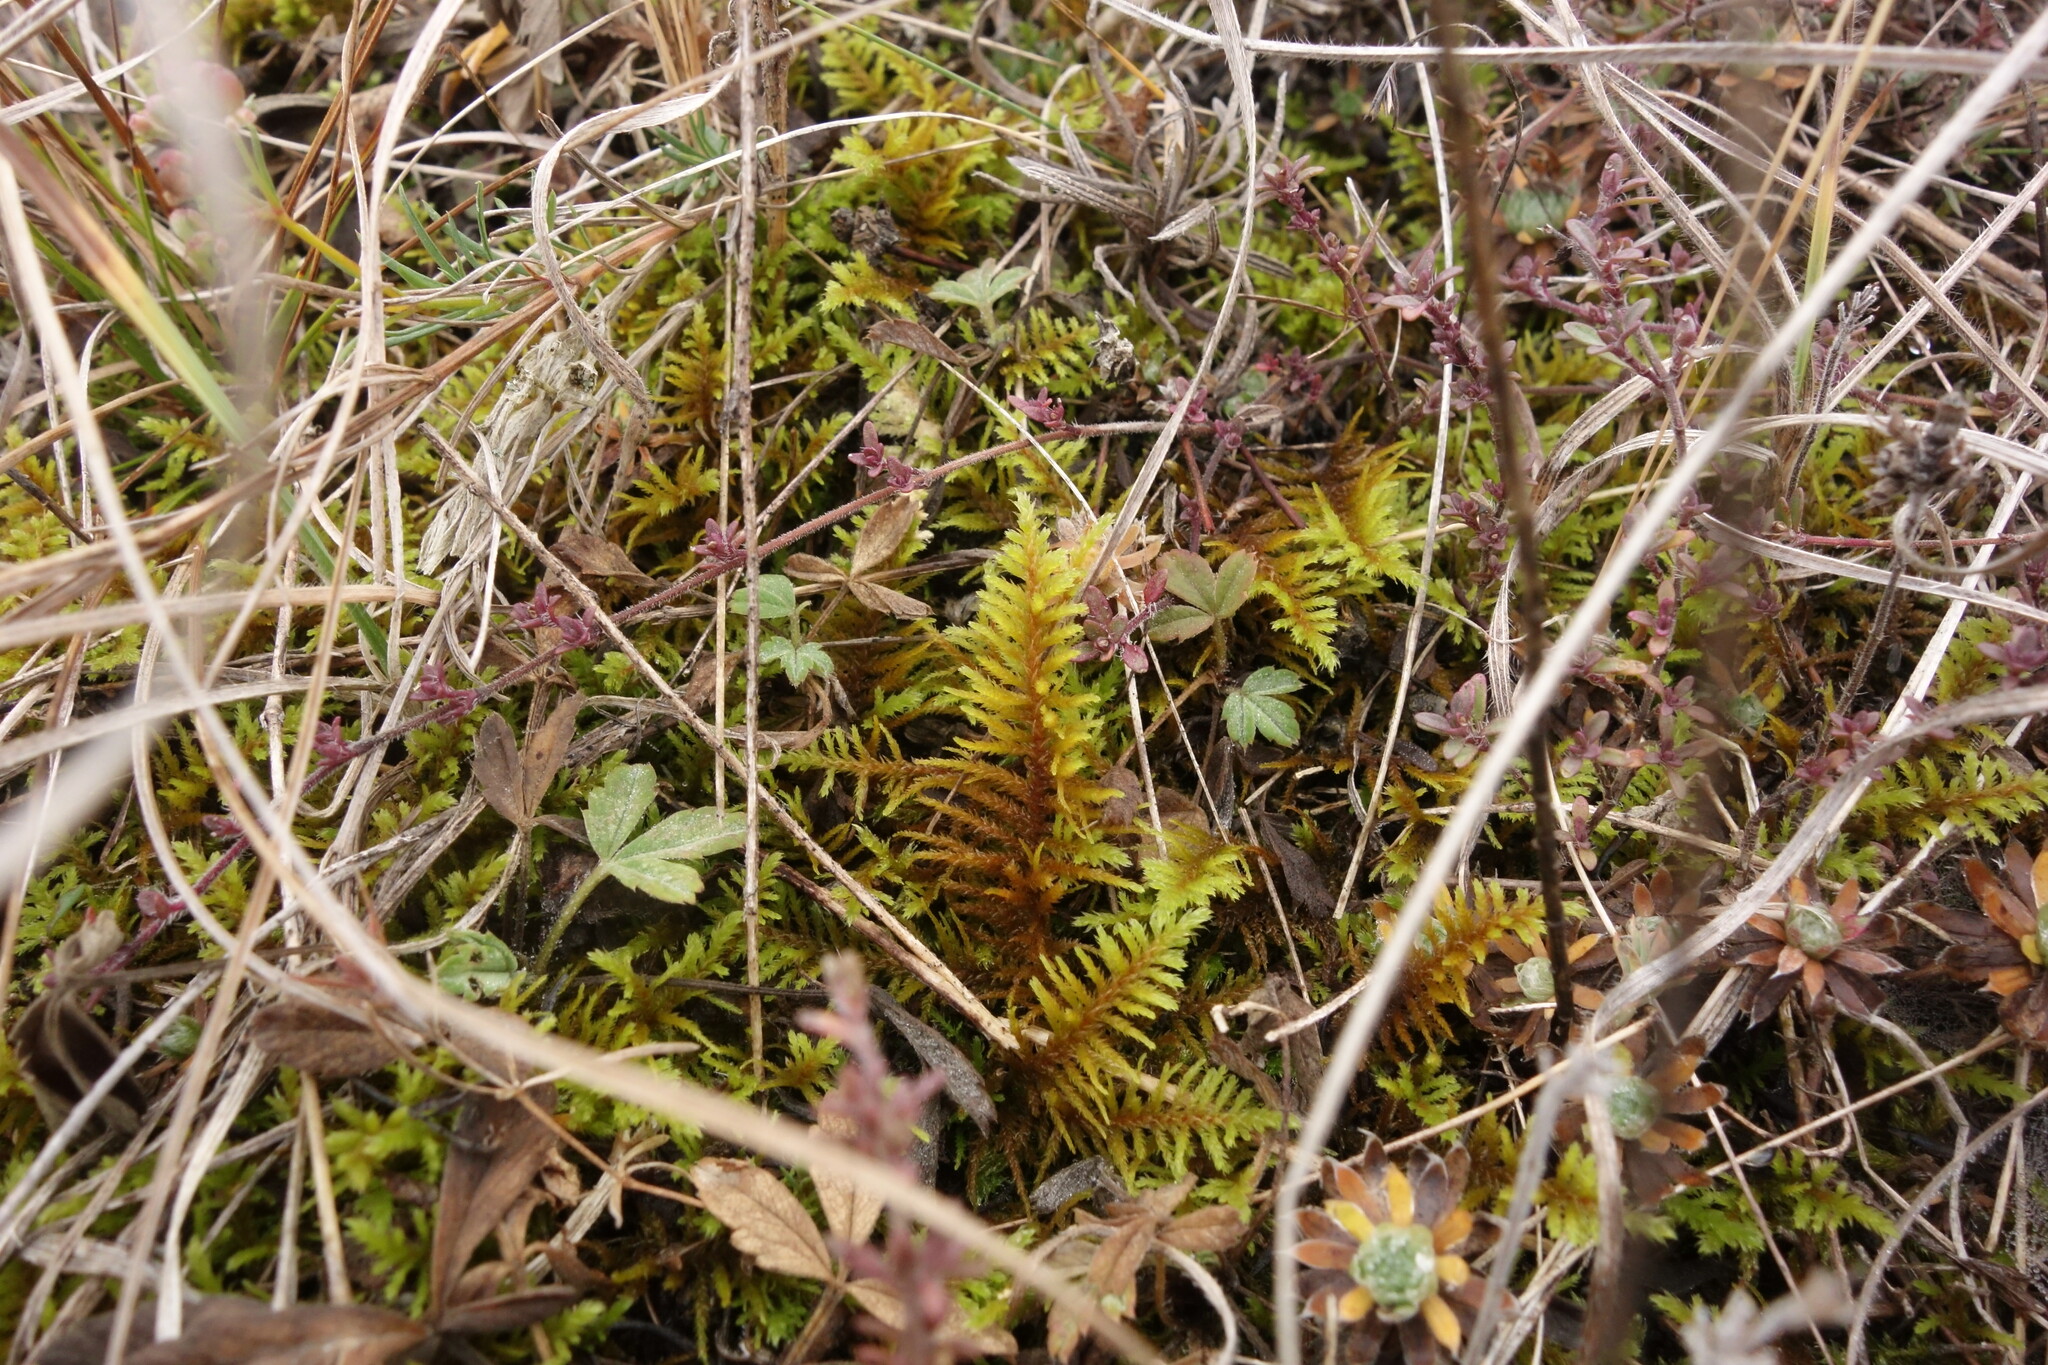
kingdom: Plantae
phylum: Bryophyta
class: Bryopsida
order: Hypnales
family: Thuidiaceae
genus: Abietinella
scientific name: Abietinella abietina
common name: Wiry fern moss
